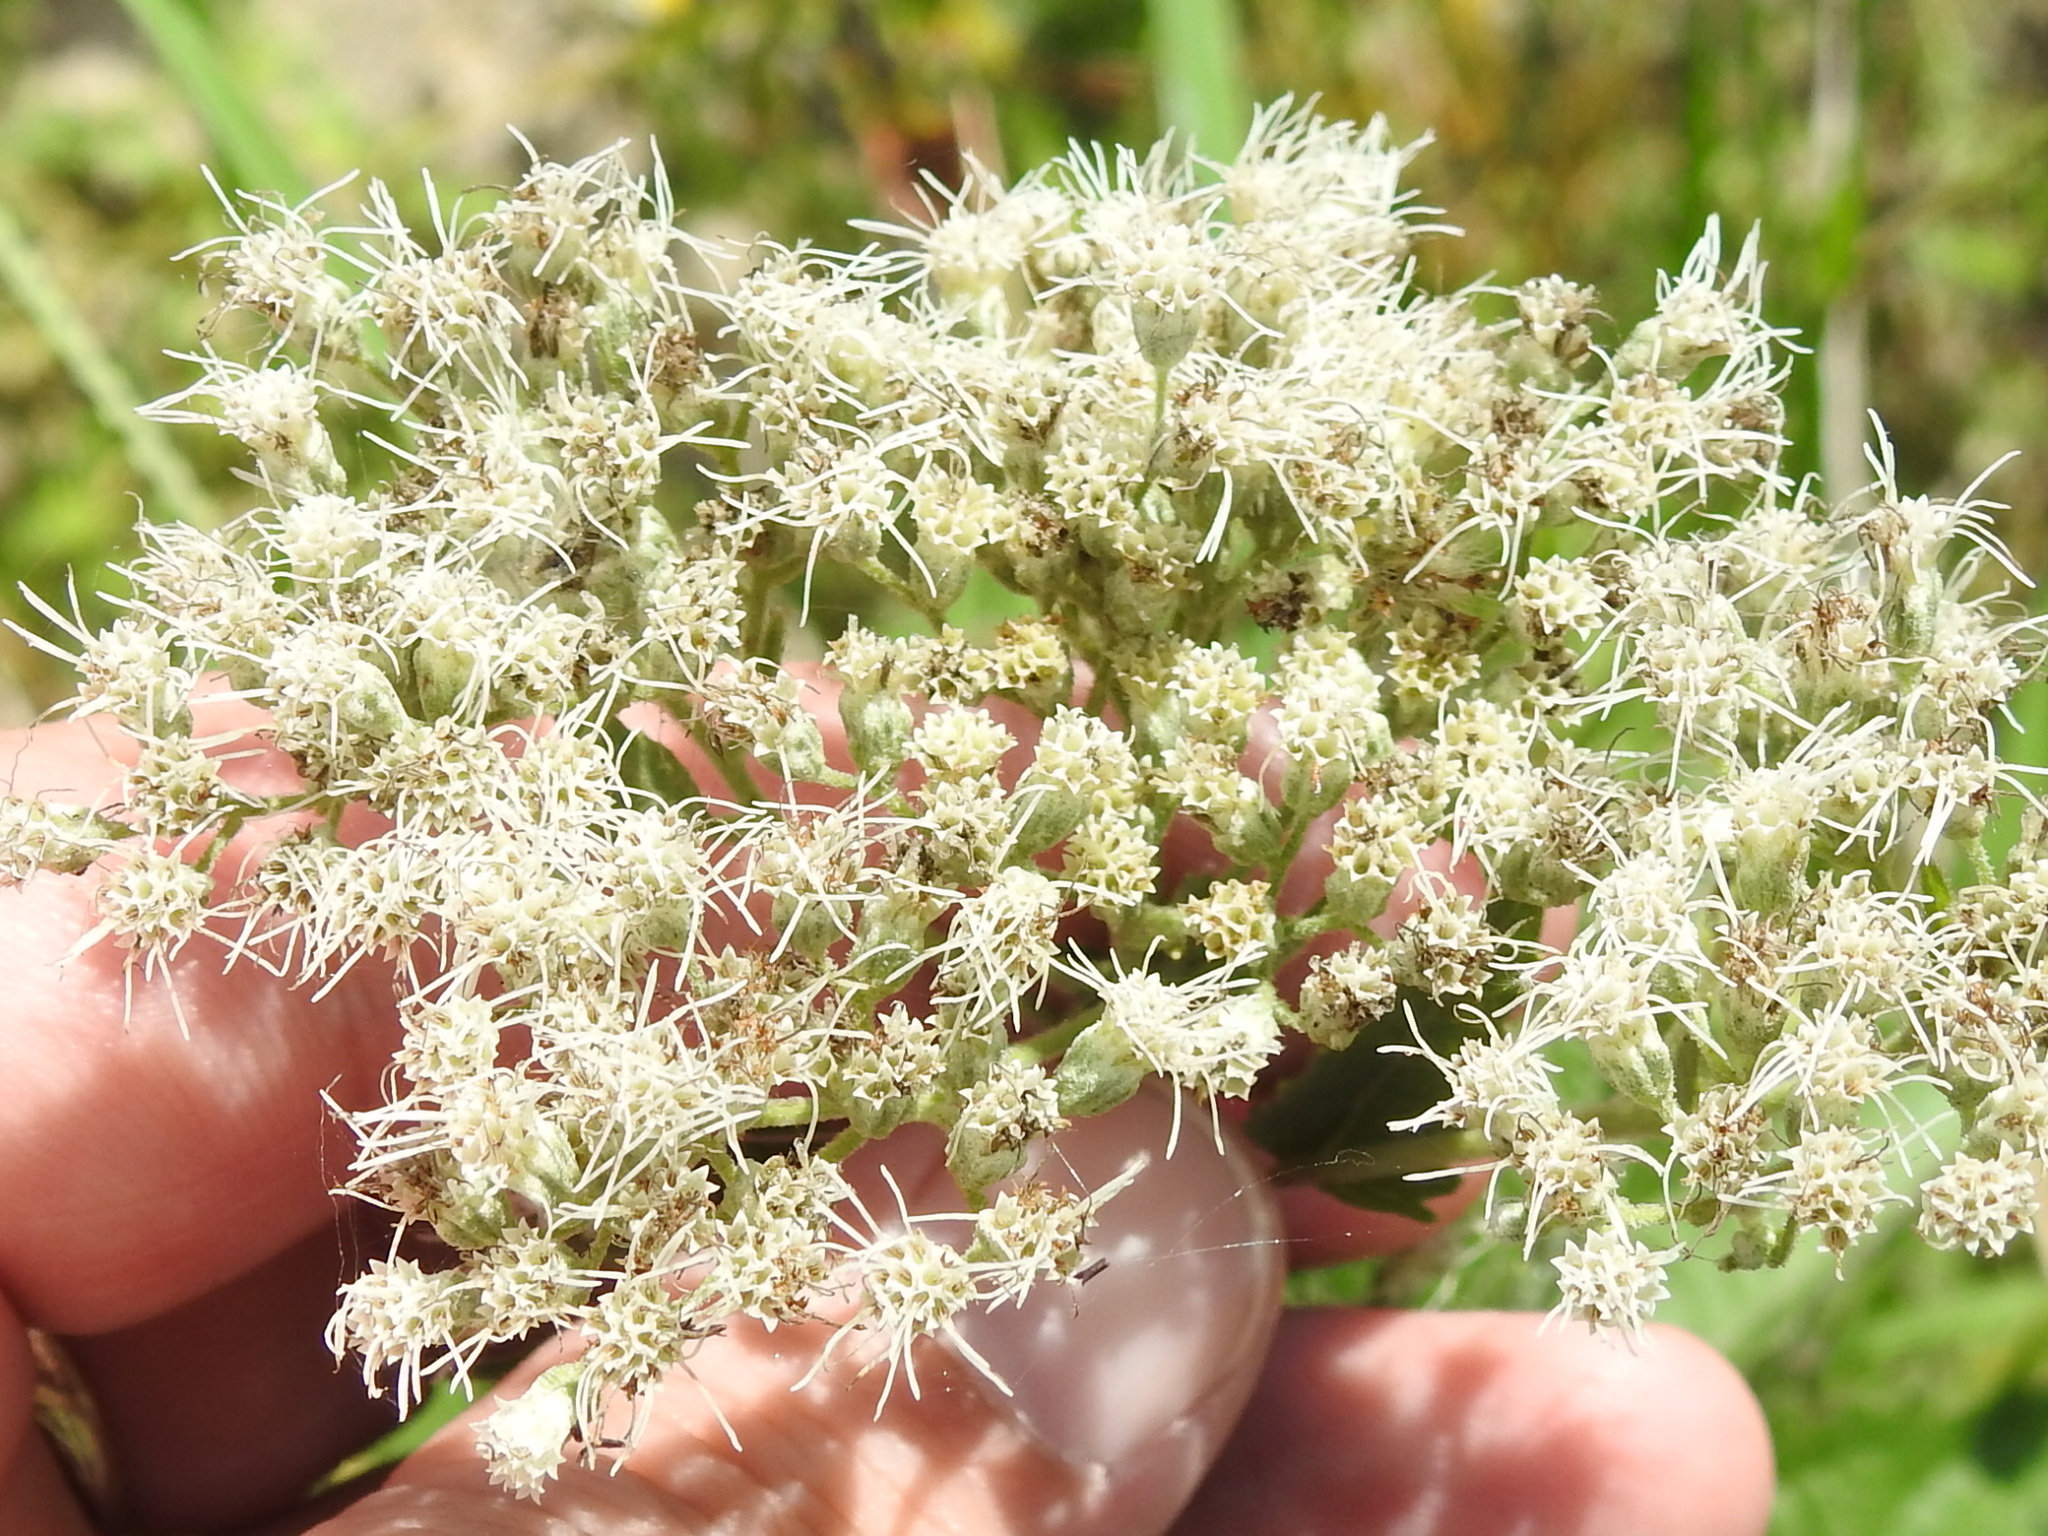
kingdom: Plantae
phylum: Tracheophyta
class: Magnoliopsida
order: Asterales
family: Asteraceae
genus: Eupatorium
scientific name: Eupatorium serotinum
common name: Late boneset
